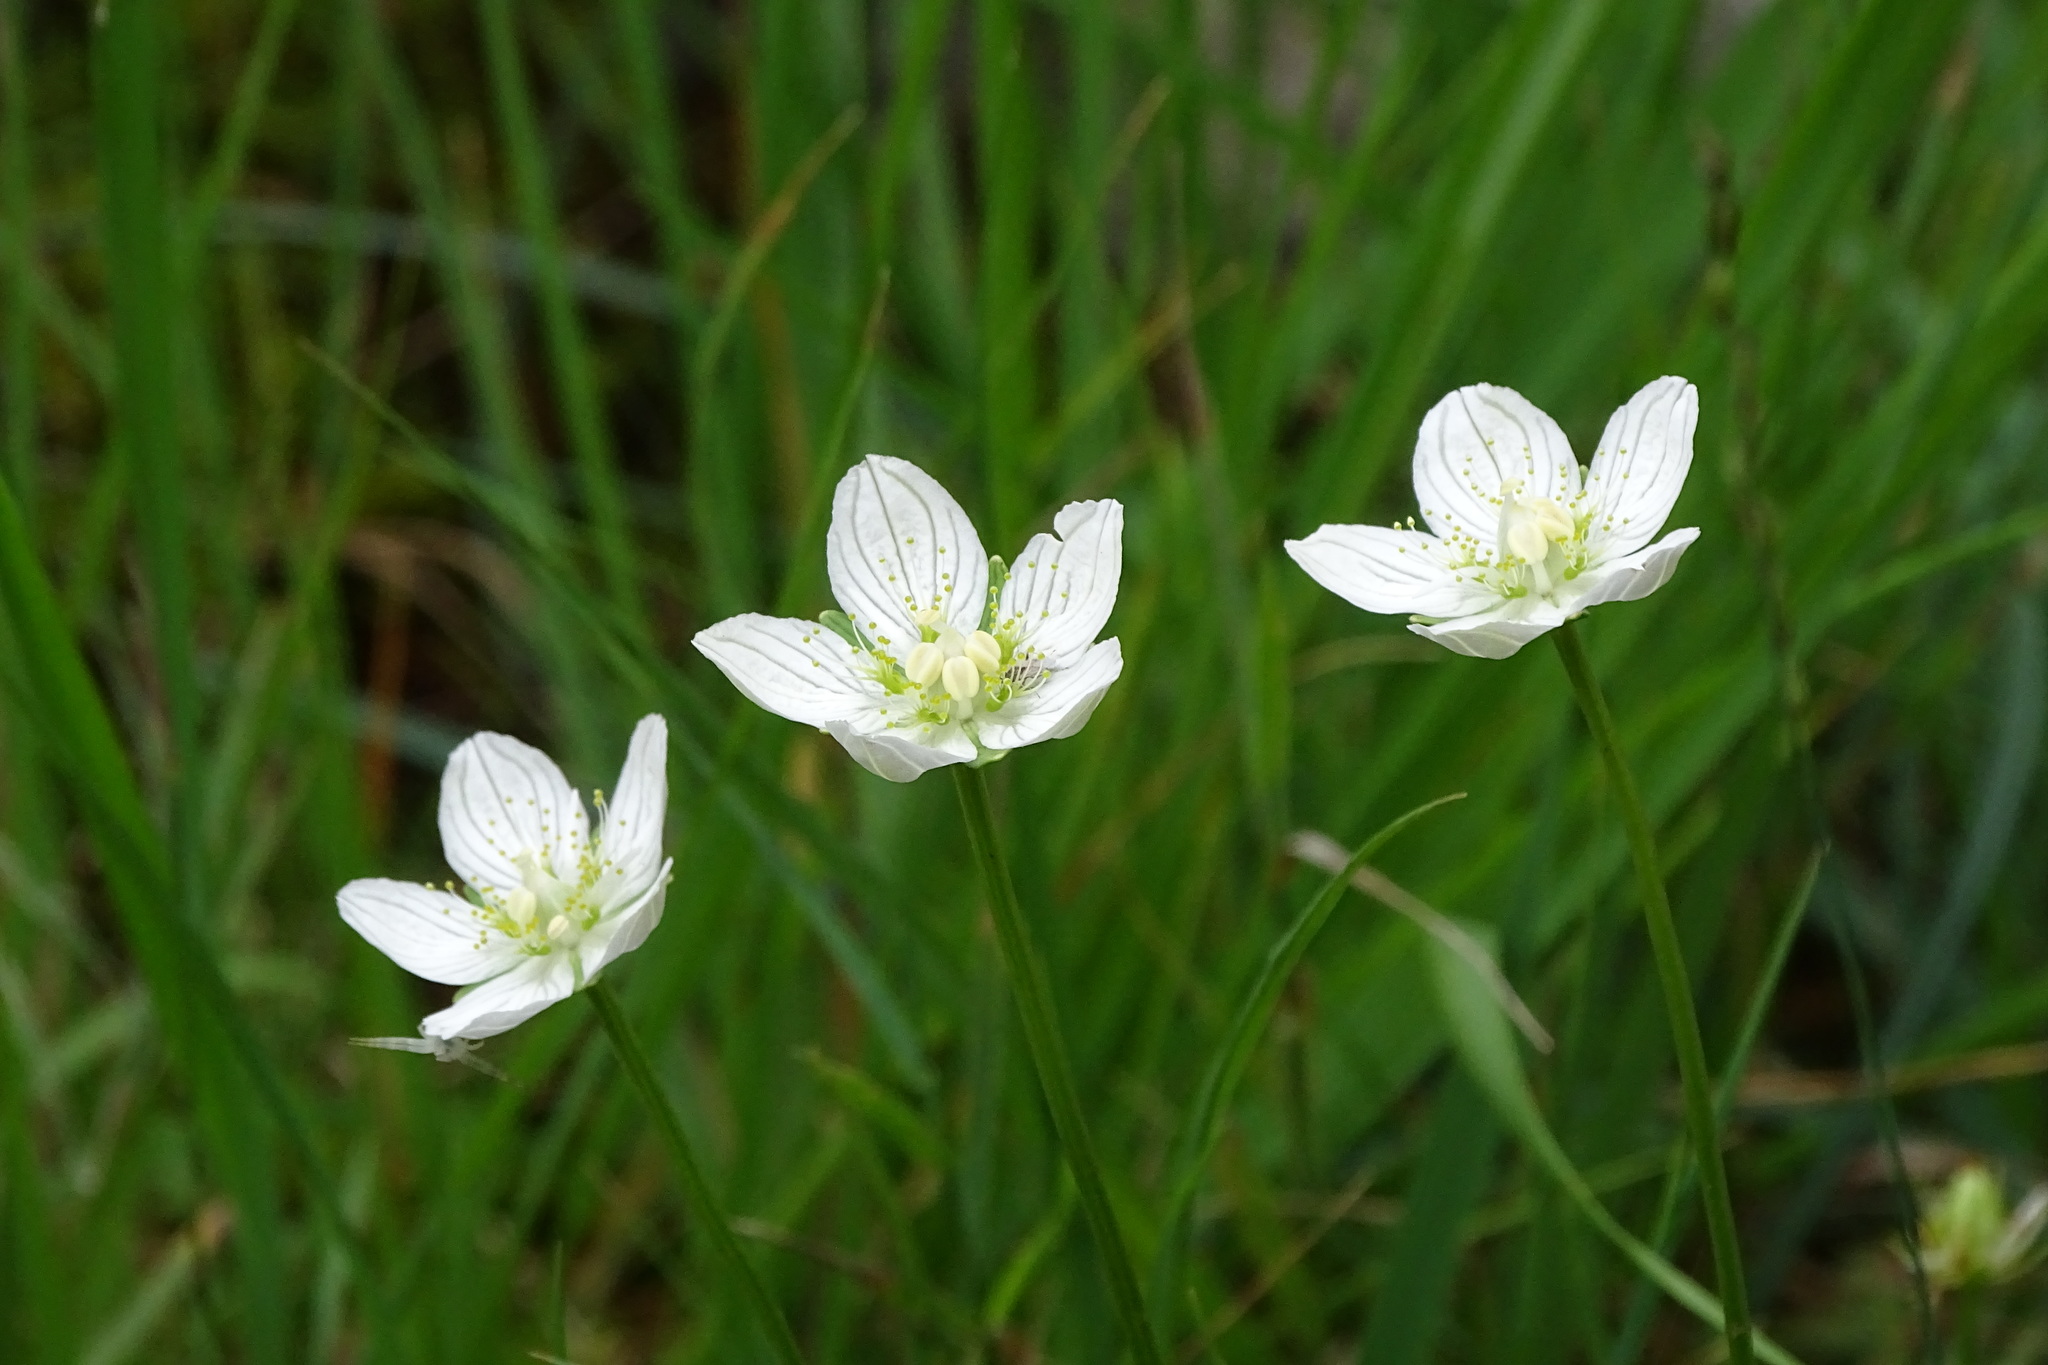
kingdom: Plantae
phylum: Tracheophyta
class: Magnoliopsida
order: Celastrales
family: Parnassiaceae
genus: Parnassia
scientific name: Parnassia palustris
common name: Grass-of-parnassus
